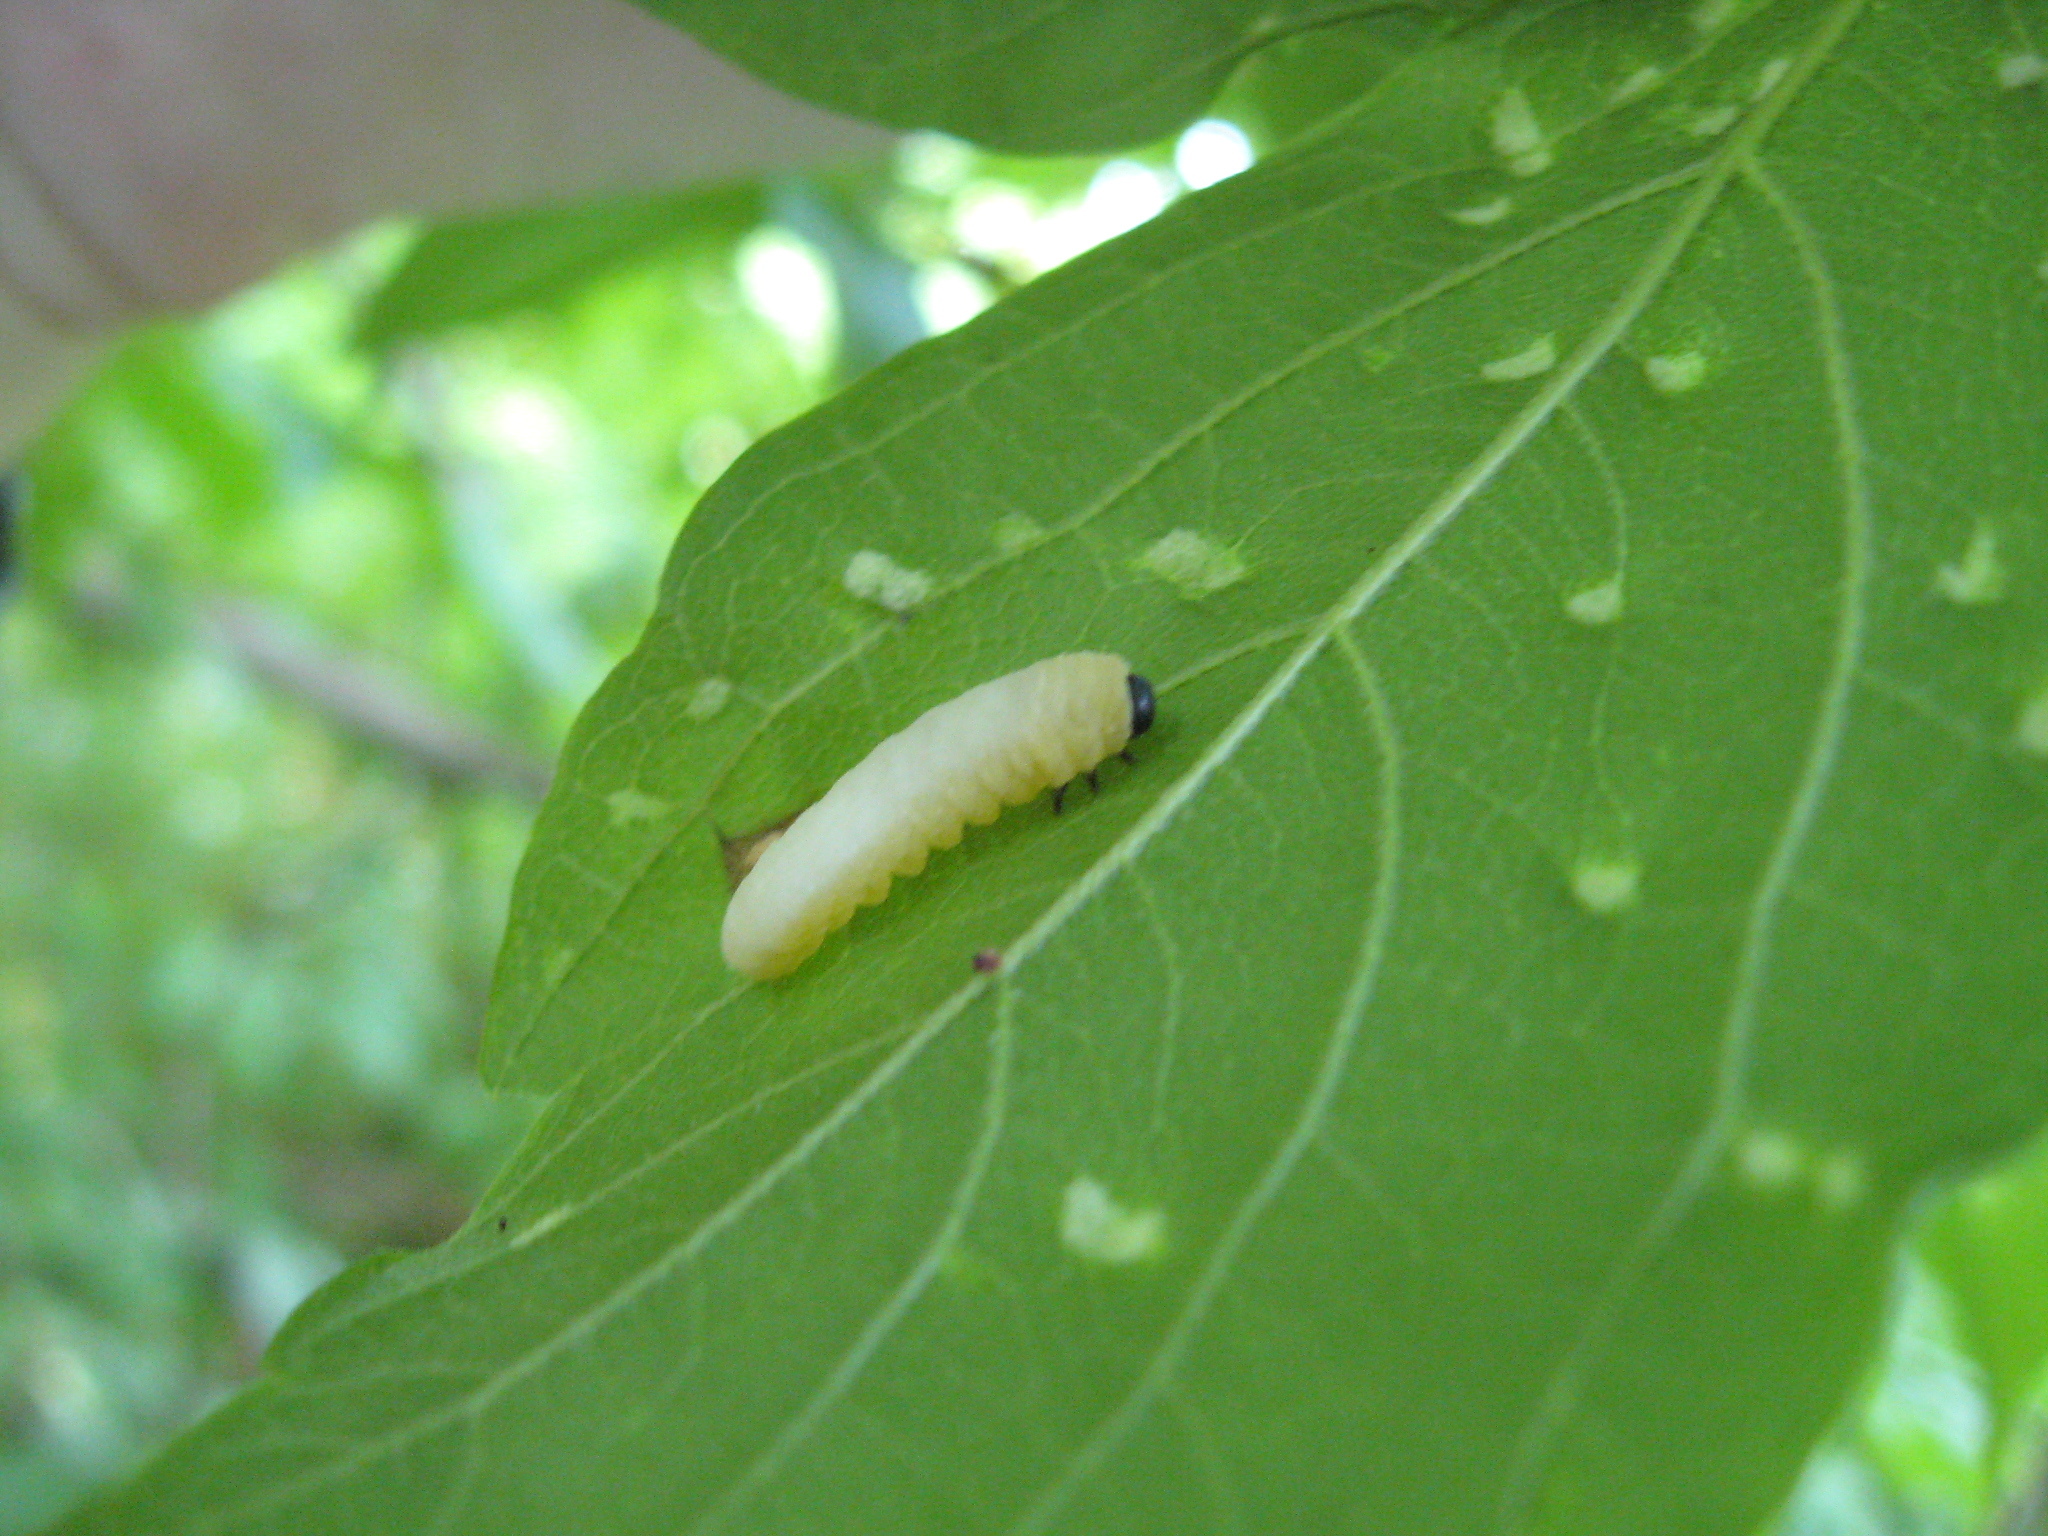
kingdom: Animalia
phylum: Arthropoda
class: Insecta
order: Hymenoptera
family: Tenthredinidae
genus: Tethida
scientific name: Tethida barda
